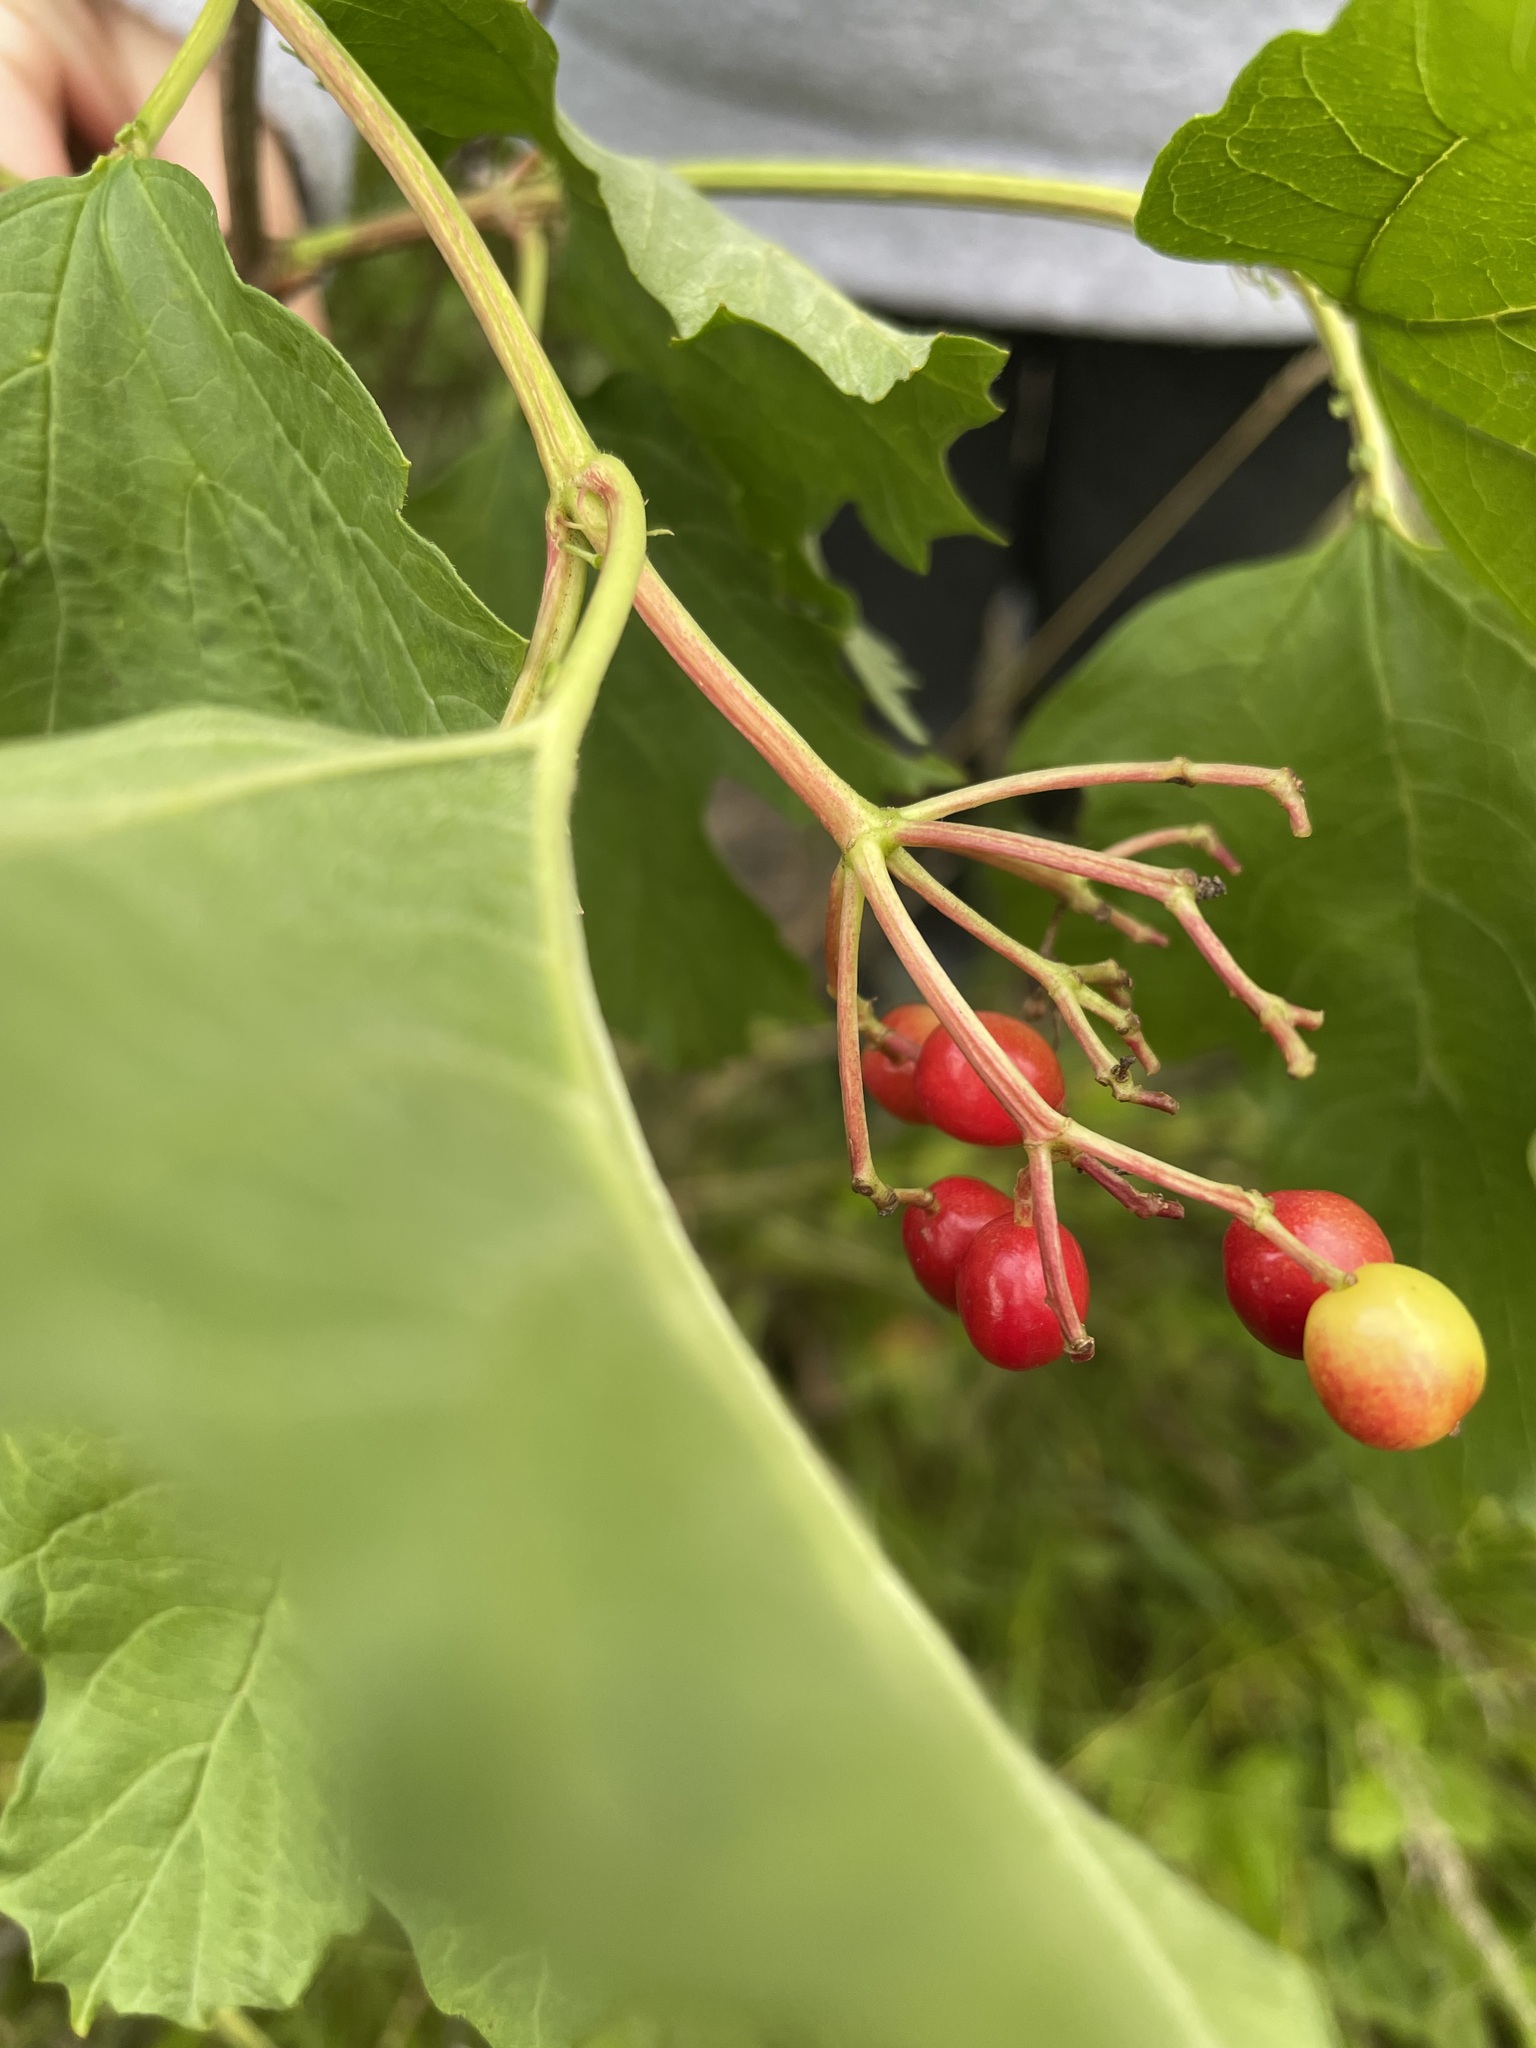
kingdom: Plantae
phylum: Tracheophyta
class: Magnoliopsida
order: Dipsacales
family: Viburnaceae
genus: Viburnum
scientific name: Viburnum opulus
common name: Guelder-rose
